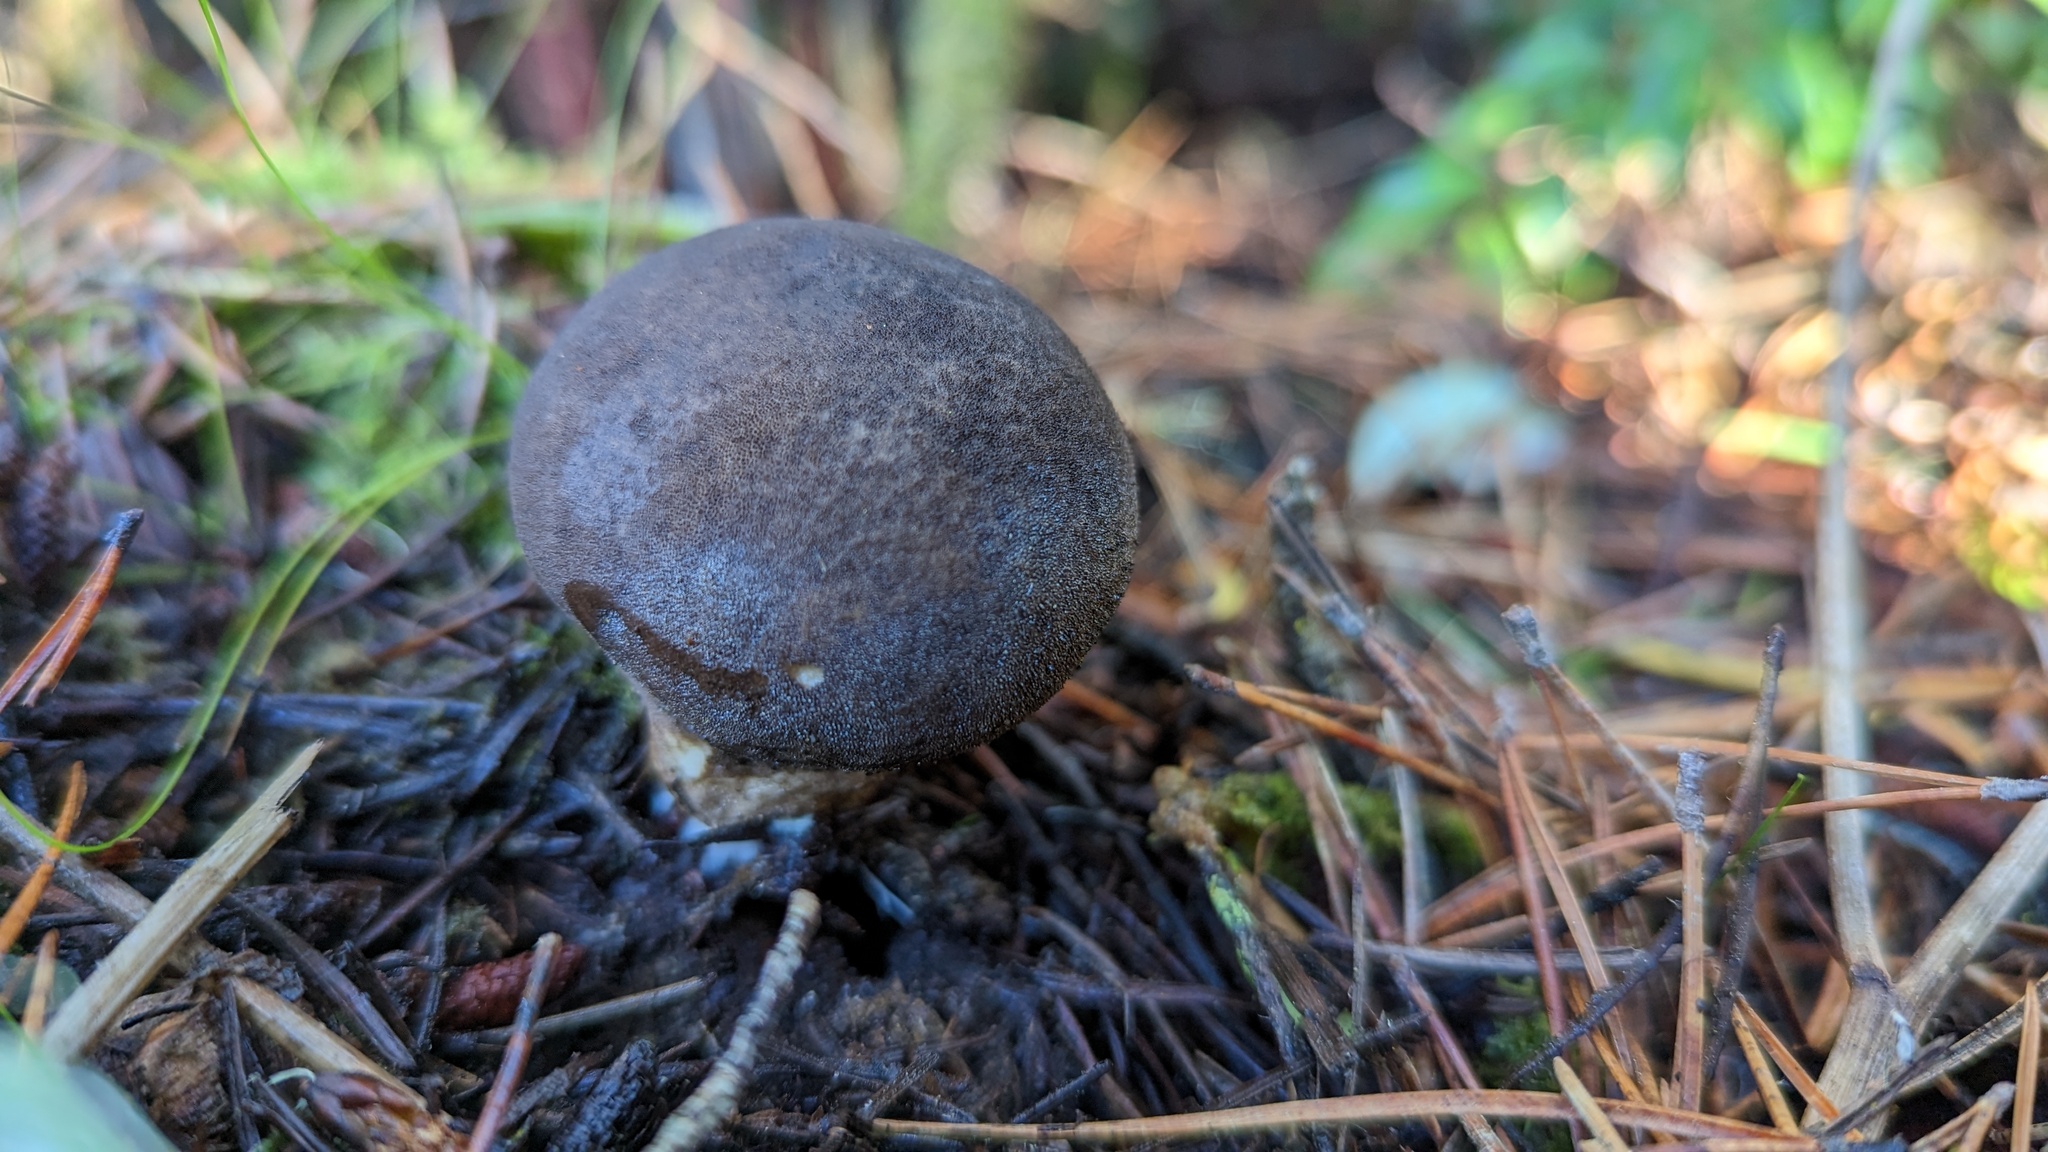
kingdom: Fungi
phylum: Basidiomycota
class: Agaricomycetes
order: Agaricales
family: Lycoperdaceae
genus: Lycoperdon
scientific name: Lycoperdon umbrinum
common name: Umber-brown puffball
